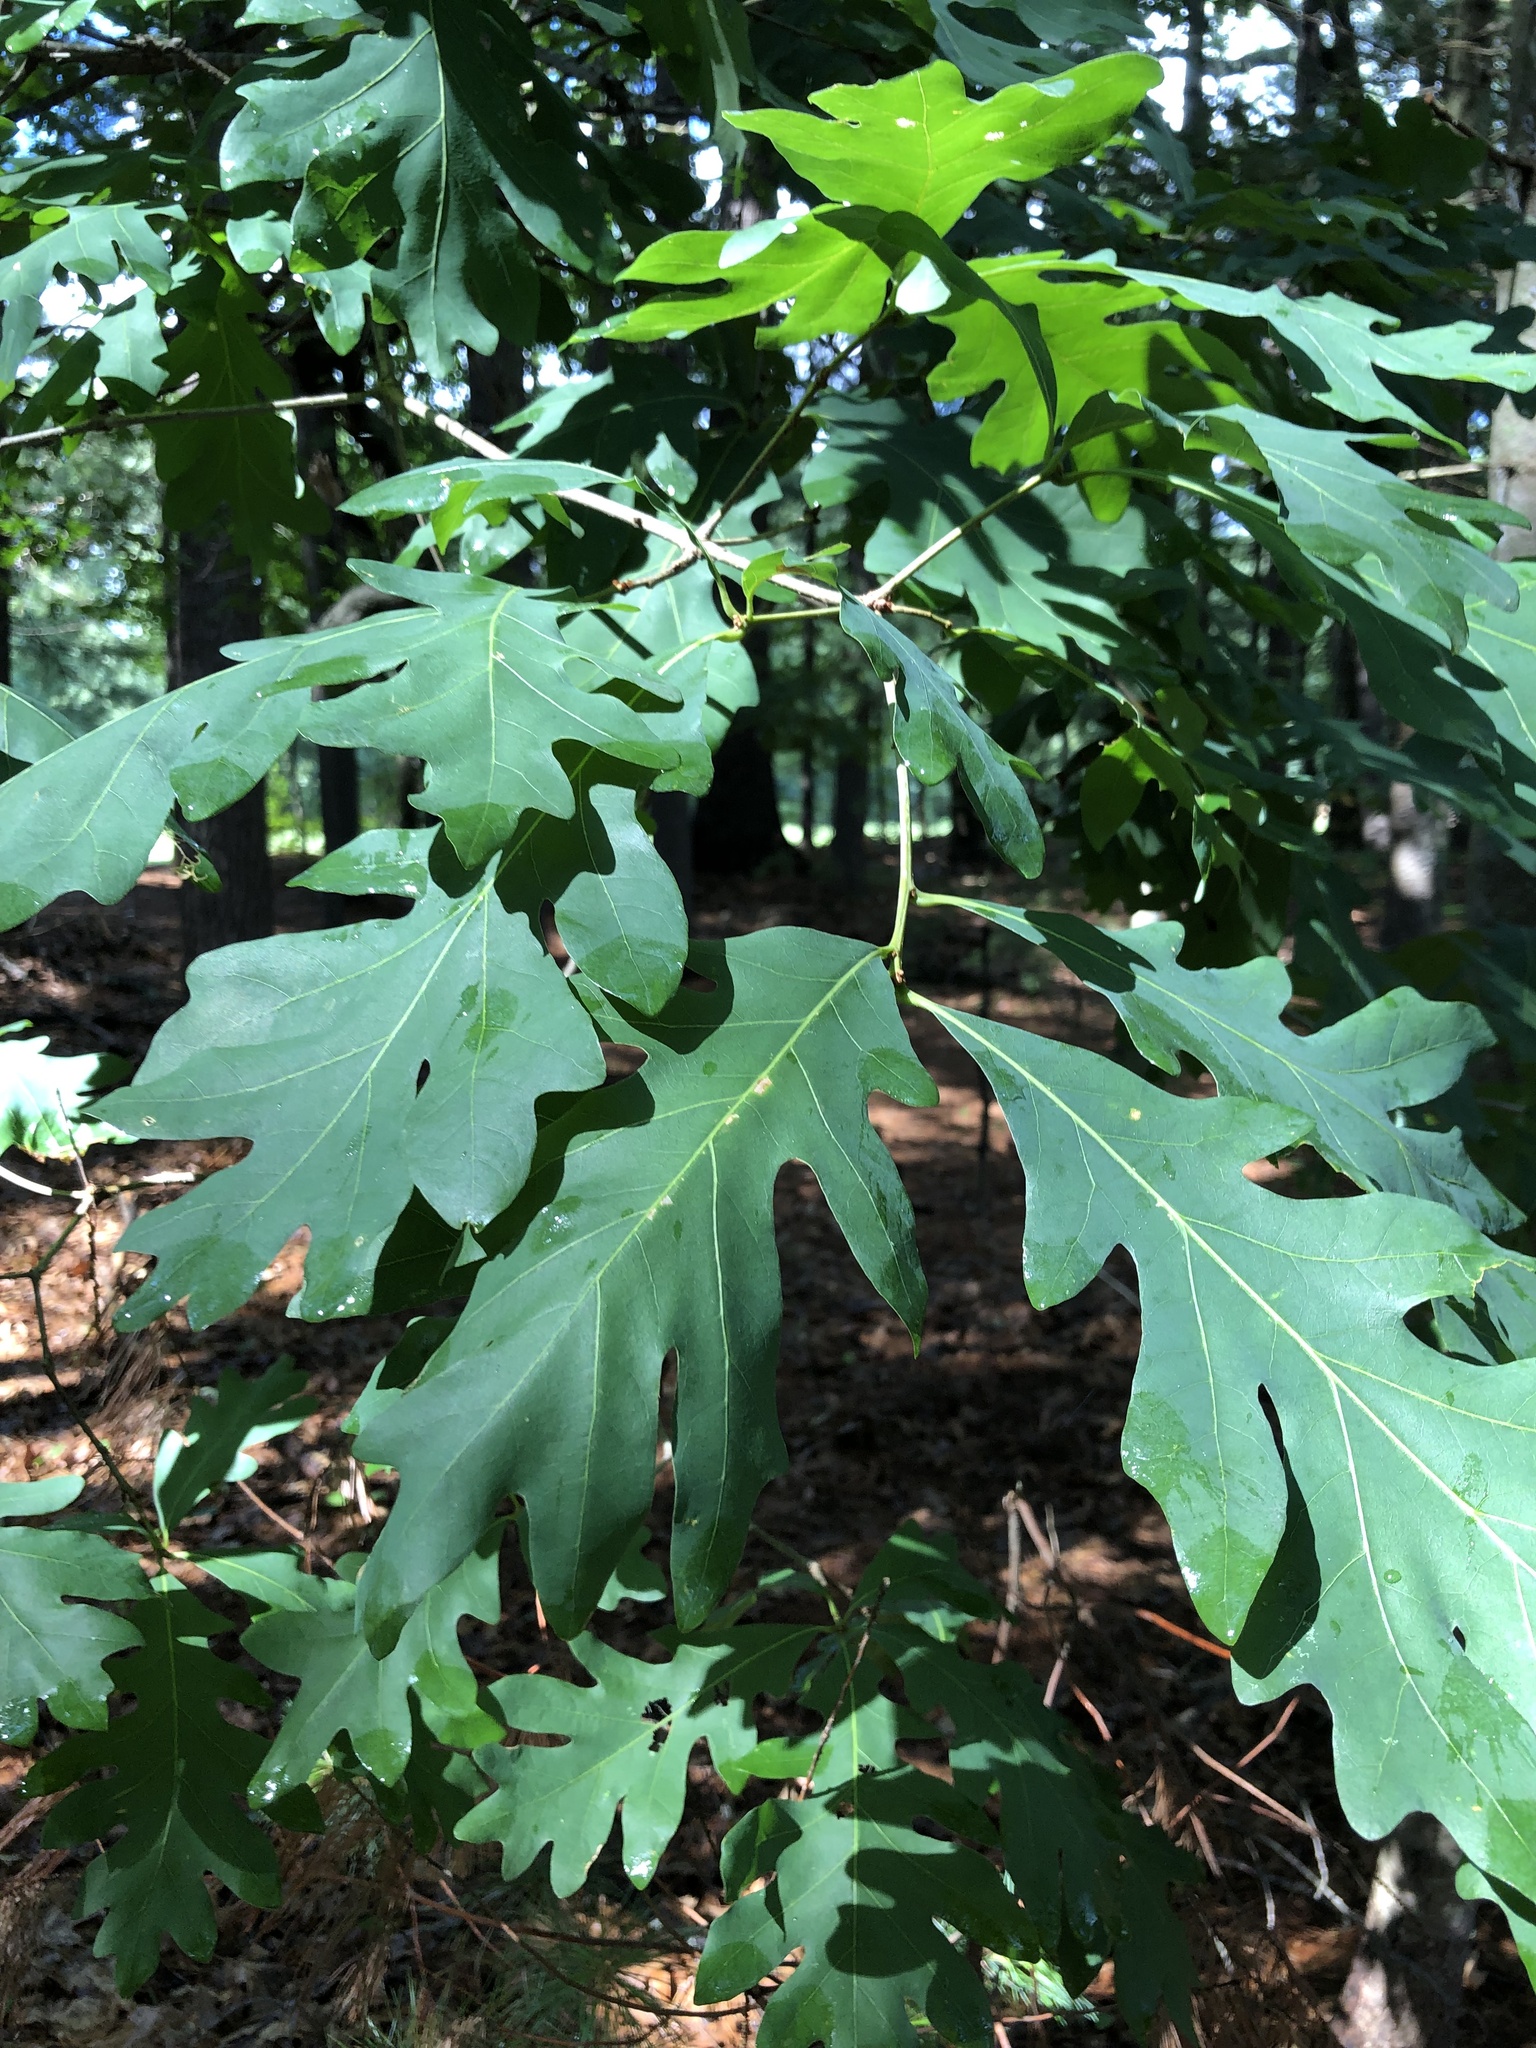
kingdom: Plantae
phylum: Tracheophyta
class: Magnoliopsida
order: Fagales
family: Fagaceae
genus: Quercus
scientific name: Quercus alba
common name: White oak
